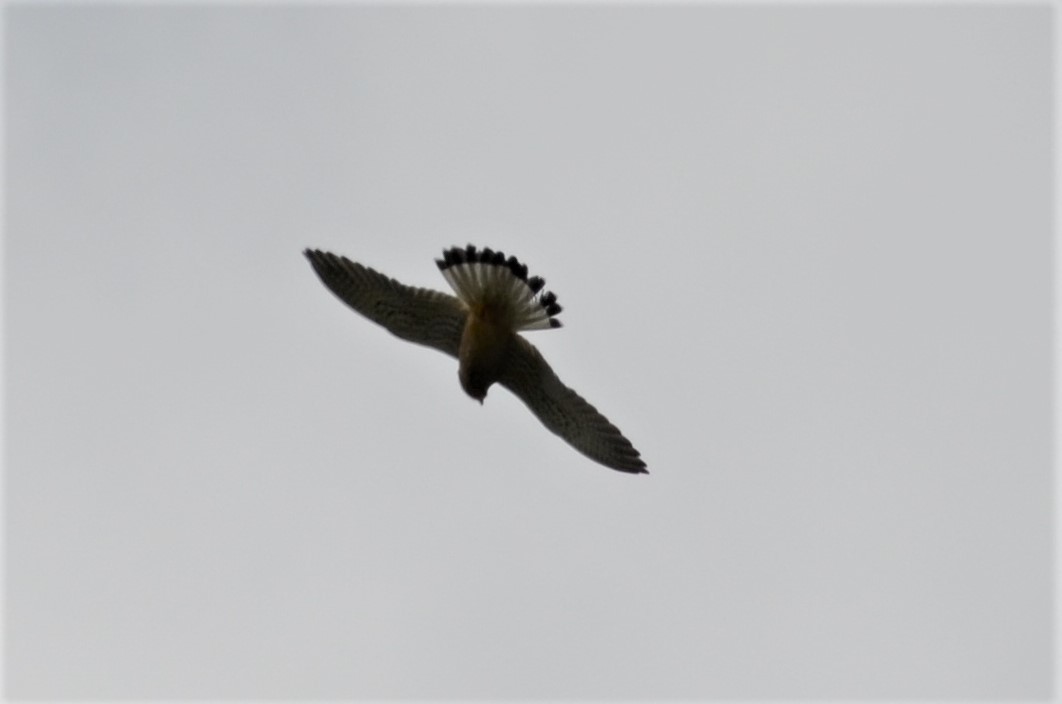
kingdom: Animalia
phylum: Chordata
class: Aves
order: Falconiformes
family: Falconidae
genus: Falco
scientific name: Falco tinnunculus
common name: Common kestrel
